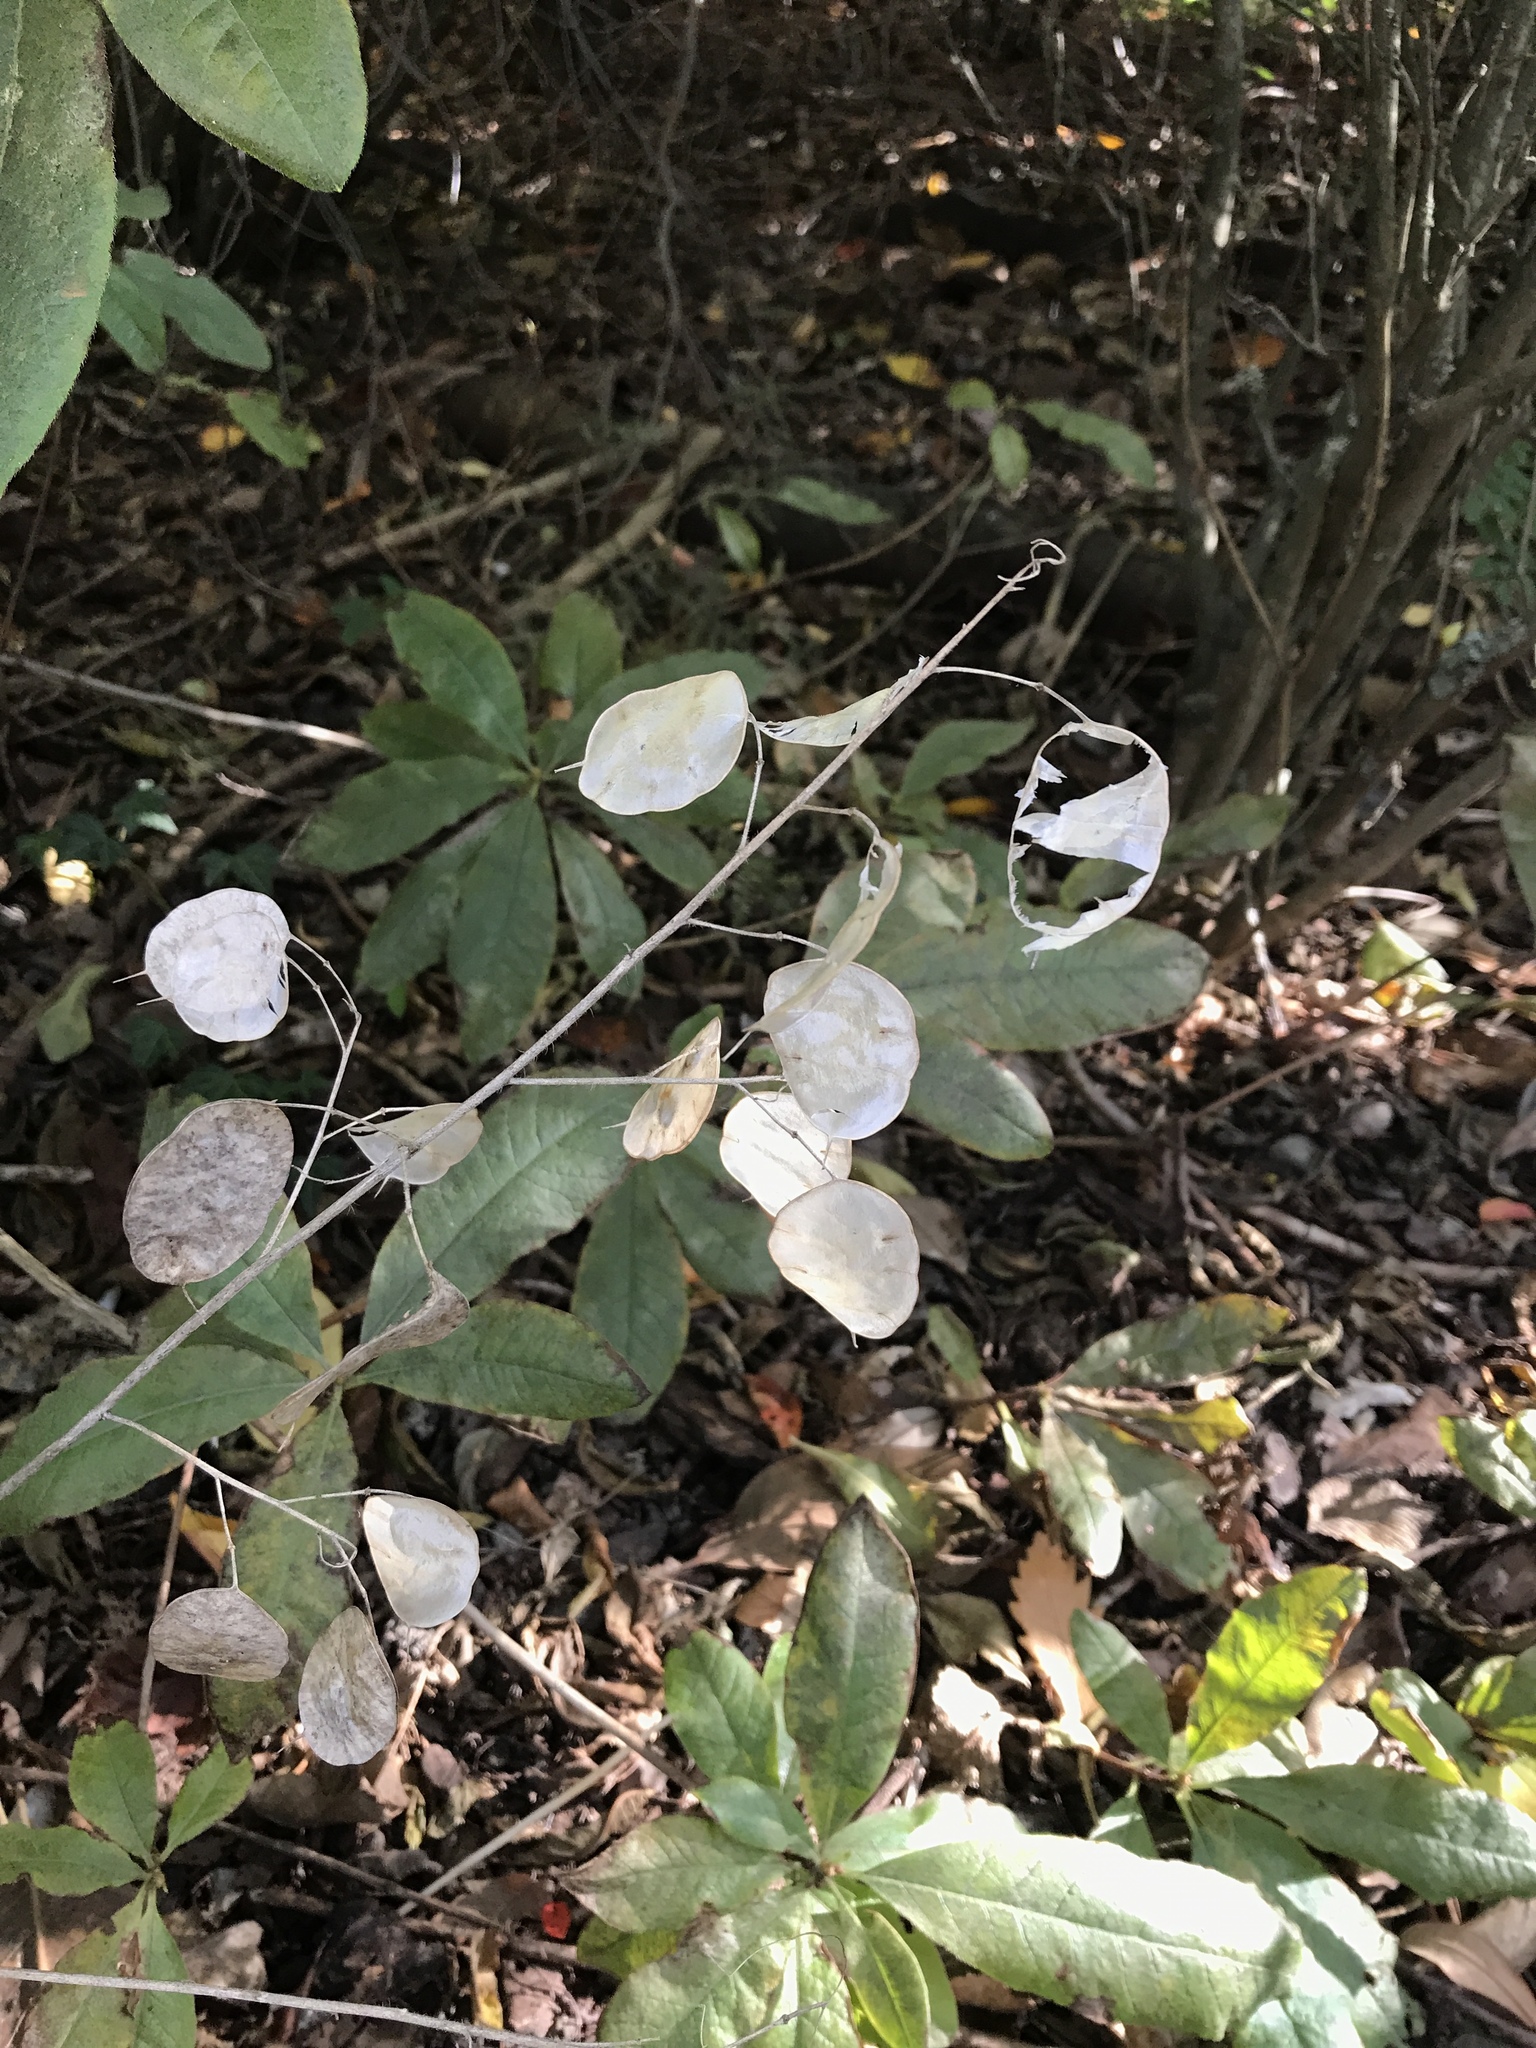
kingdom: Plantae
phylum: Tracheophyta
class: Magnoliopsida
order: Brassicales
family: Brassicaceae
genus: Lunaria
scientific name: Lunaria annua
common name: Honesty
